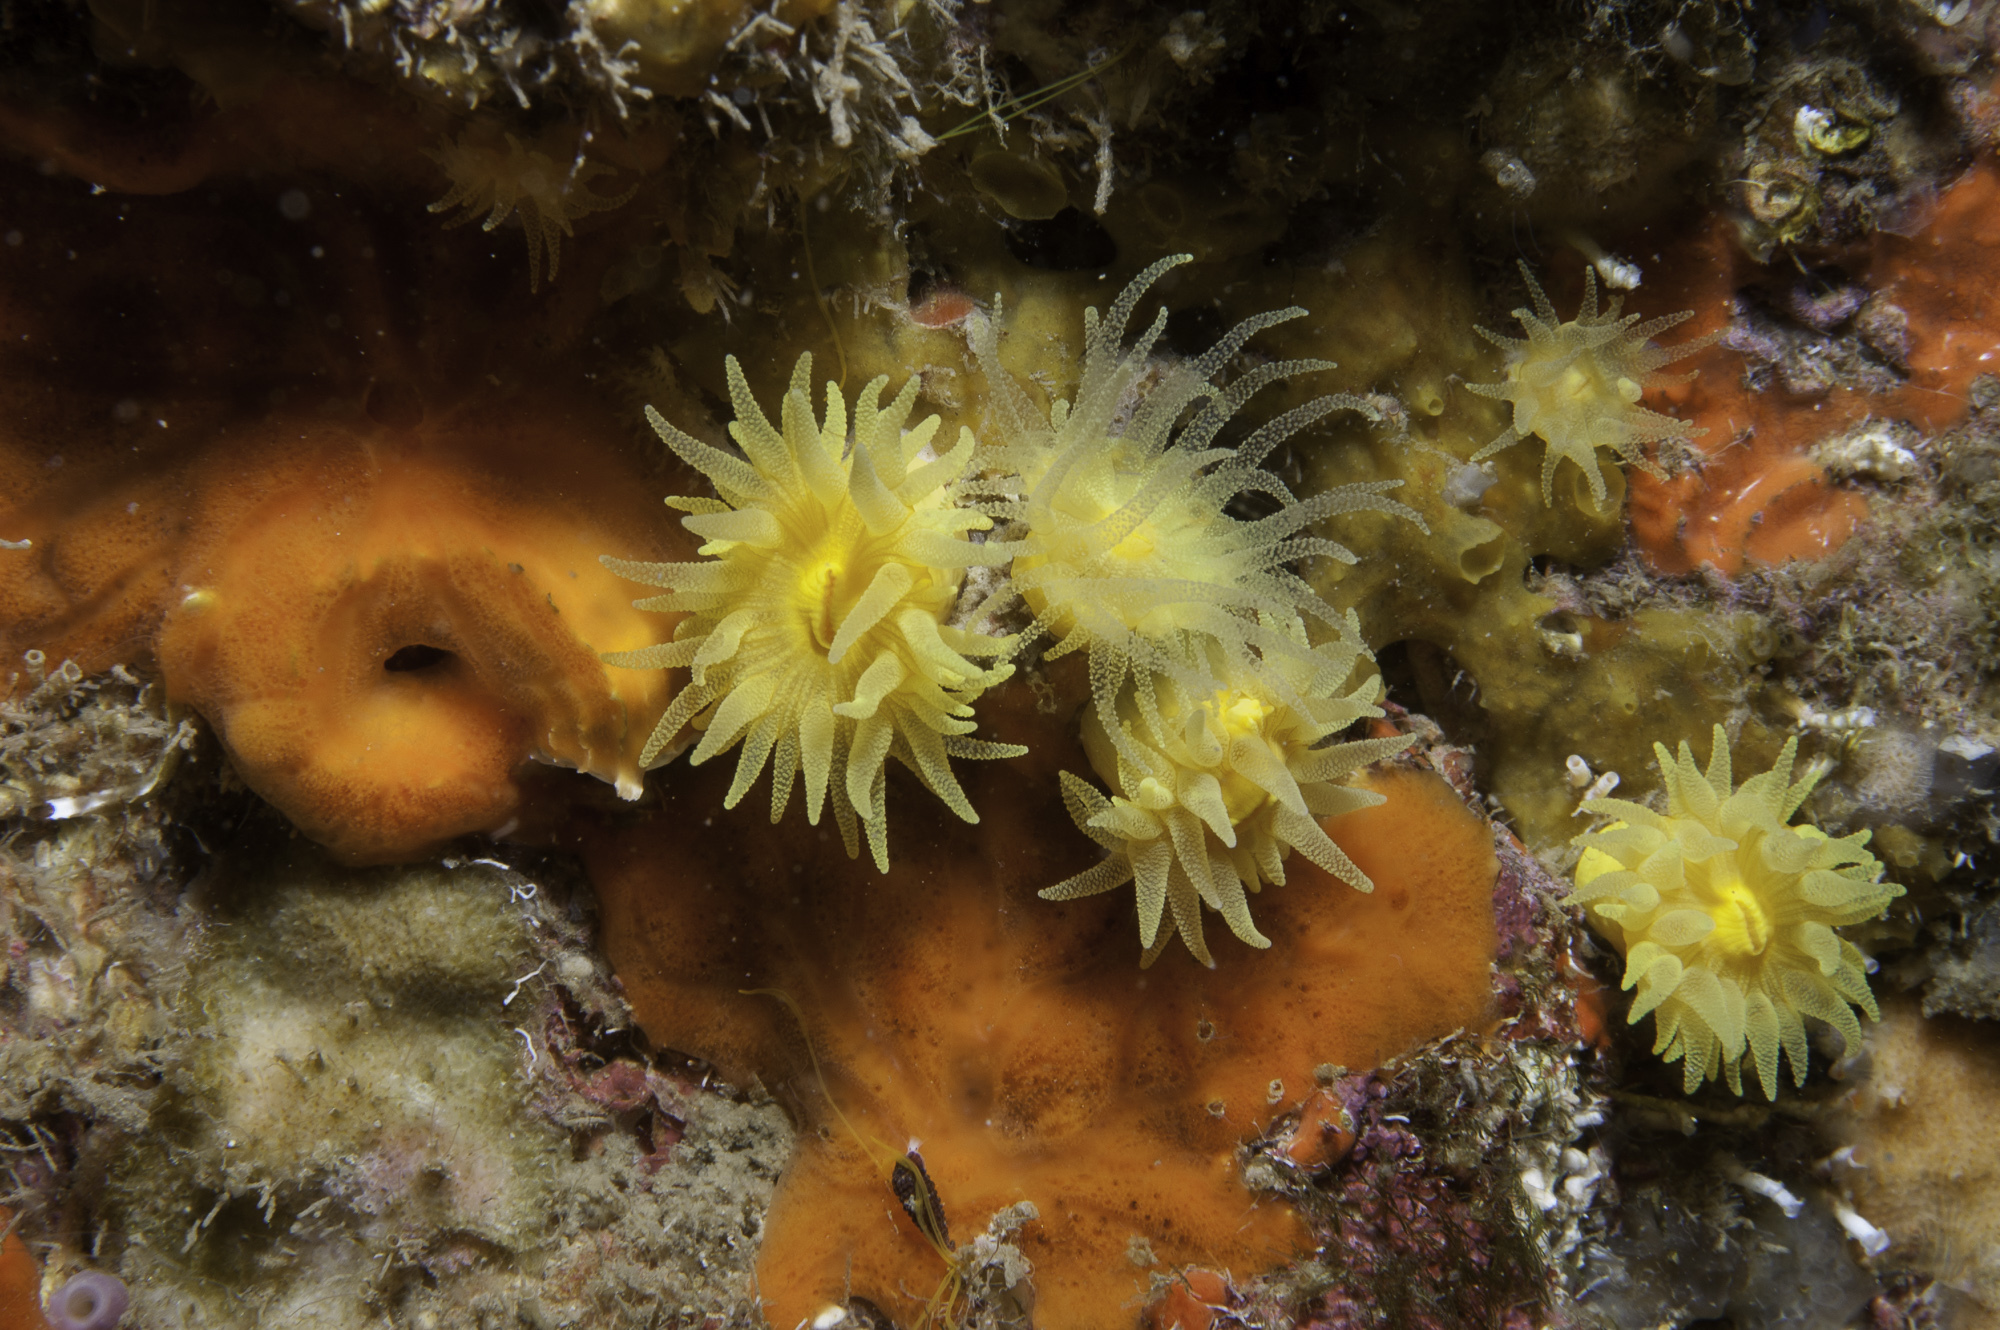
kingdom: Animalia
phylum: Cnidaria
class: Anthozoa
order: Scleractinia
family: Dendrophylliidae
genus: Leptopsammia
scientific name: Leptopsammia pruvoti
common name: Sunset cup coral
